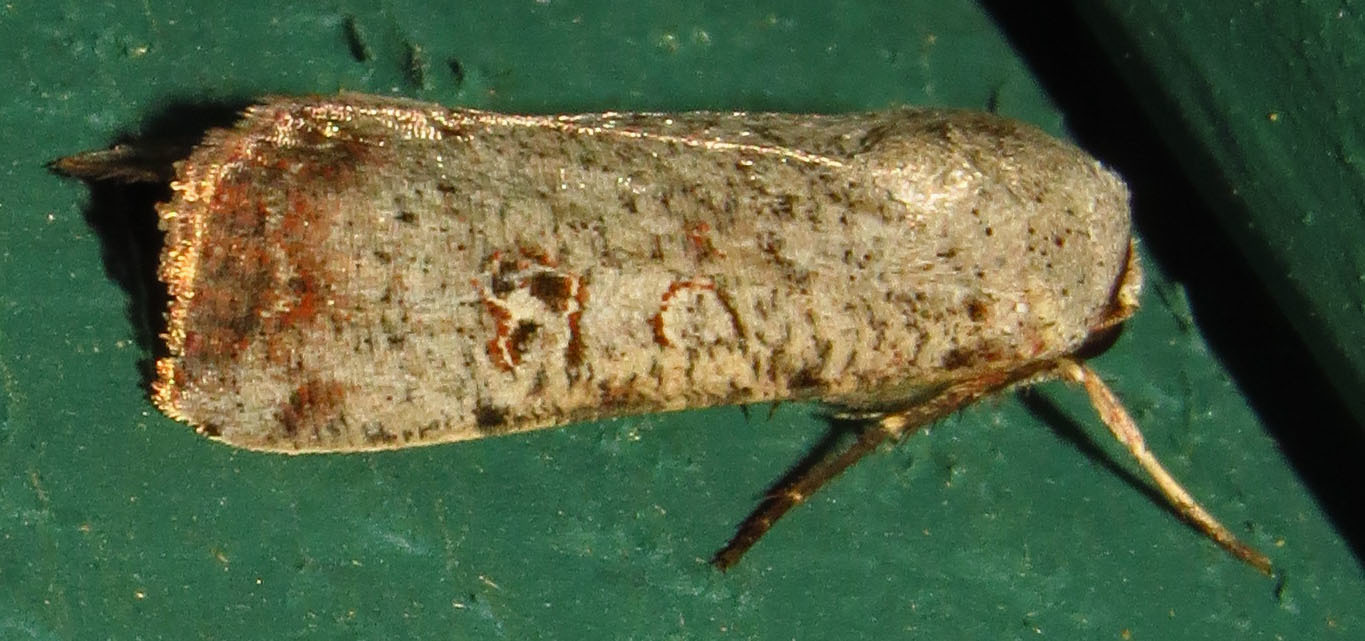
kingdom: Animalia
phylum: Arthropoda
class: Insecta
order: Lepidoptera
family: Noctuidae
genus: Anicla
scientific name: Anicla infecta
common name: Green cutworm
